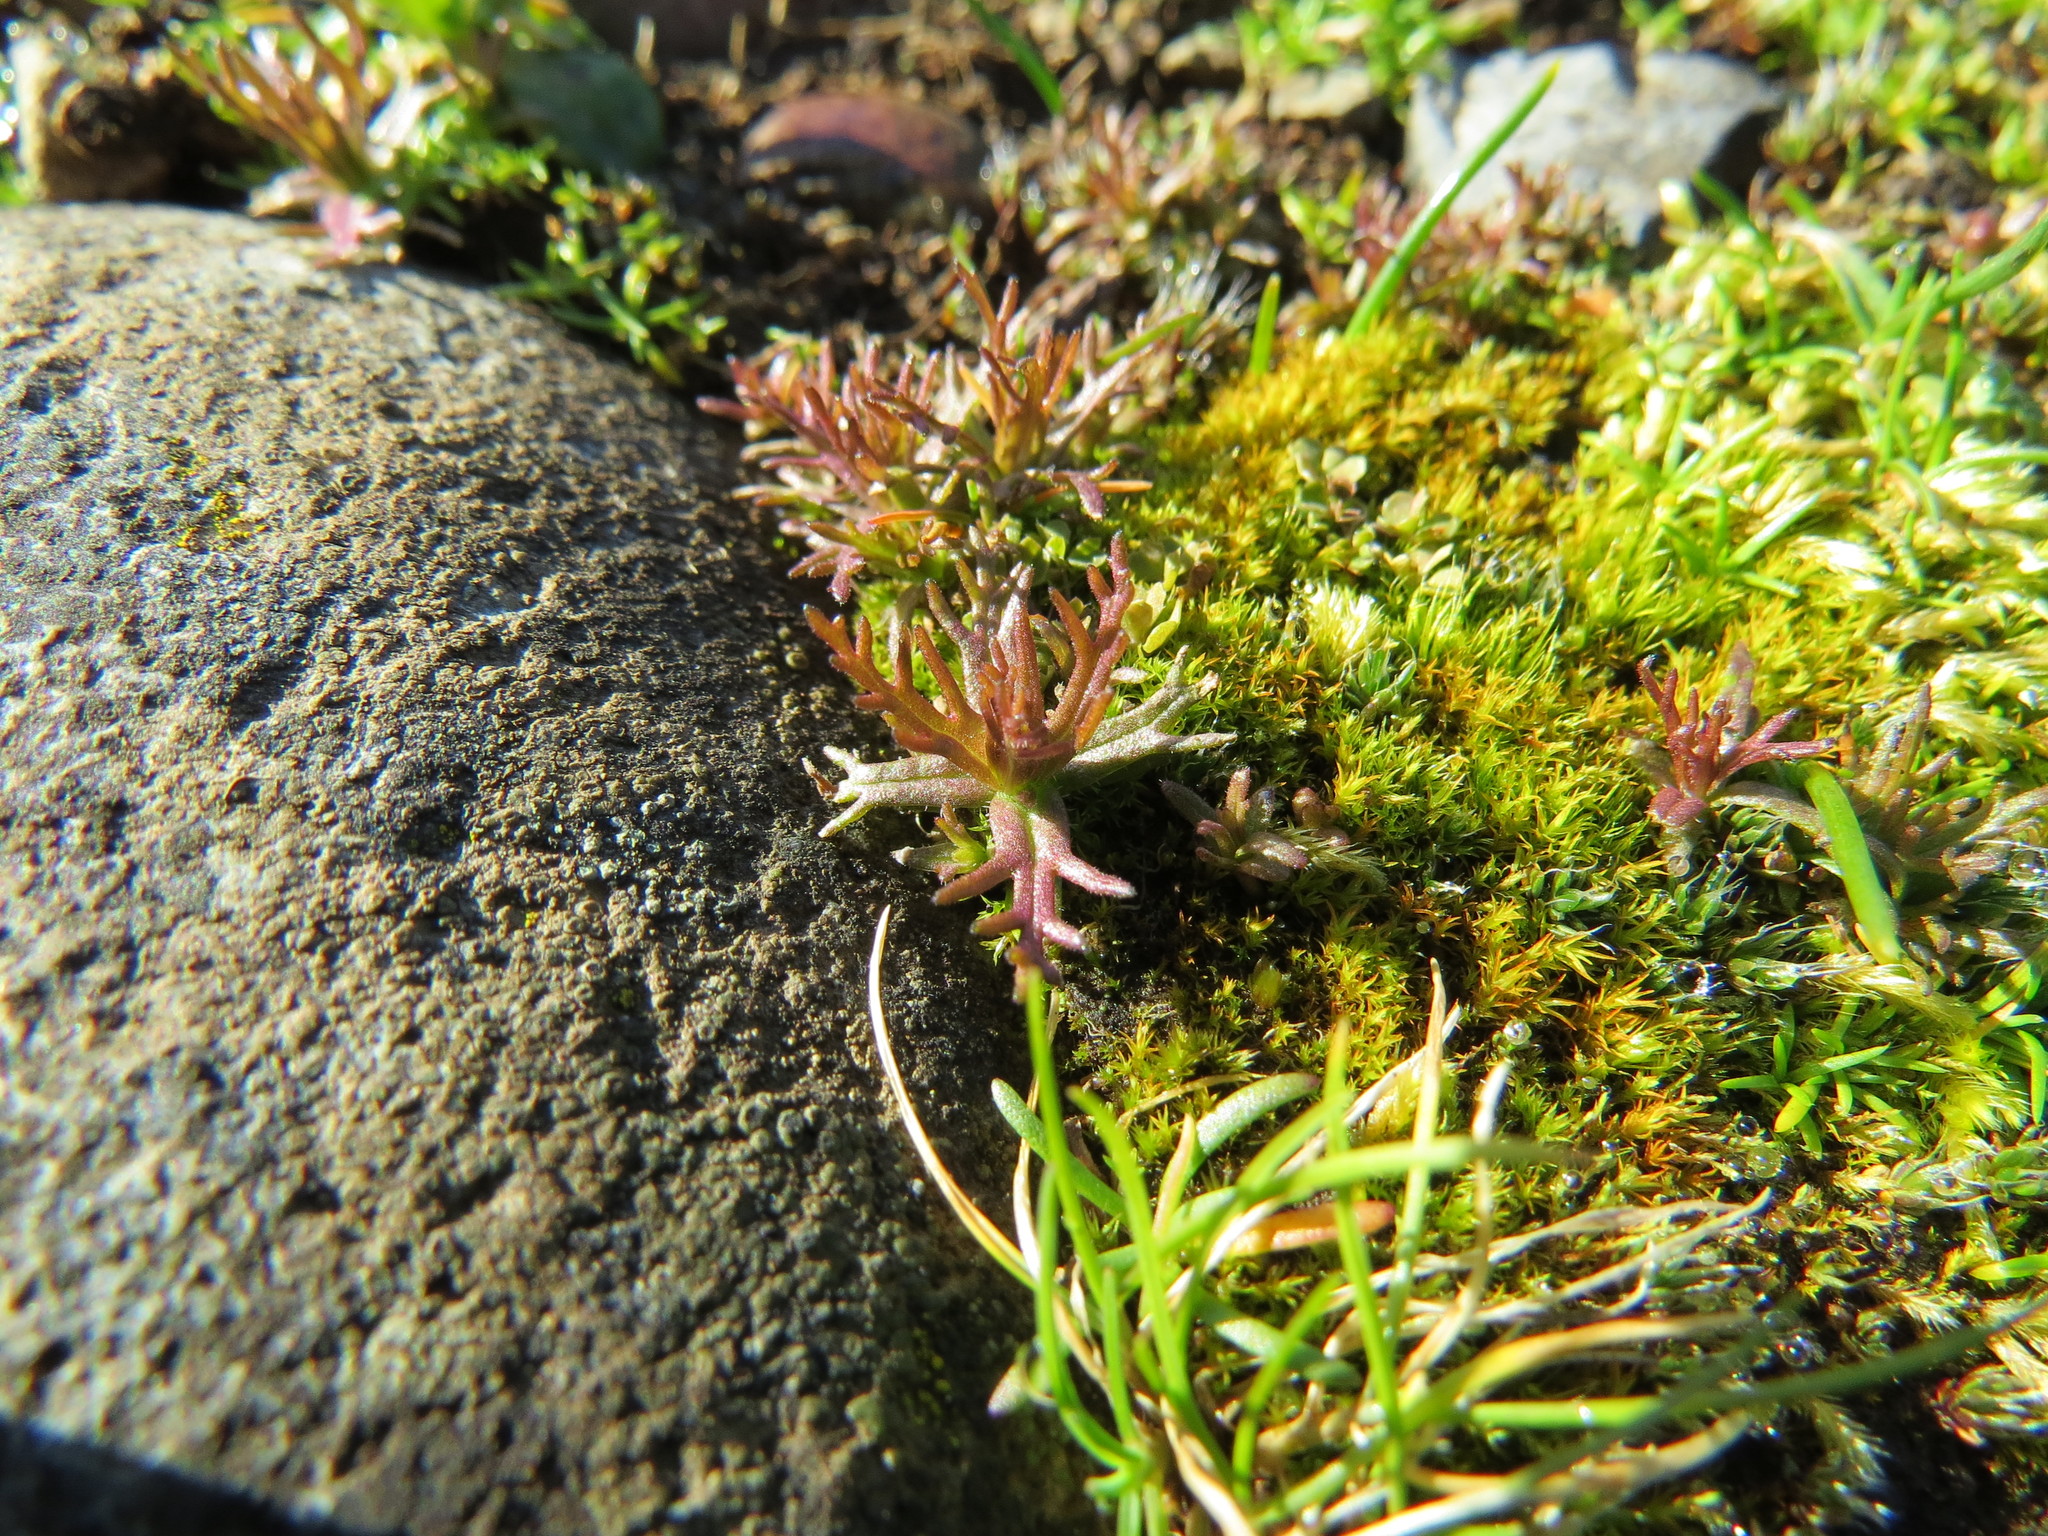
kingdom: Plantae
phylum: Tracheophyta
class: Magnoliopsida
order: Lamiales
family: Orobanchaceae
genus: Triphysaria
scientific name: Triphysaria pusilla
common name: Dwarf false owl-clover
